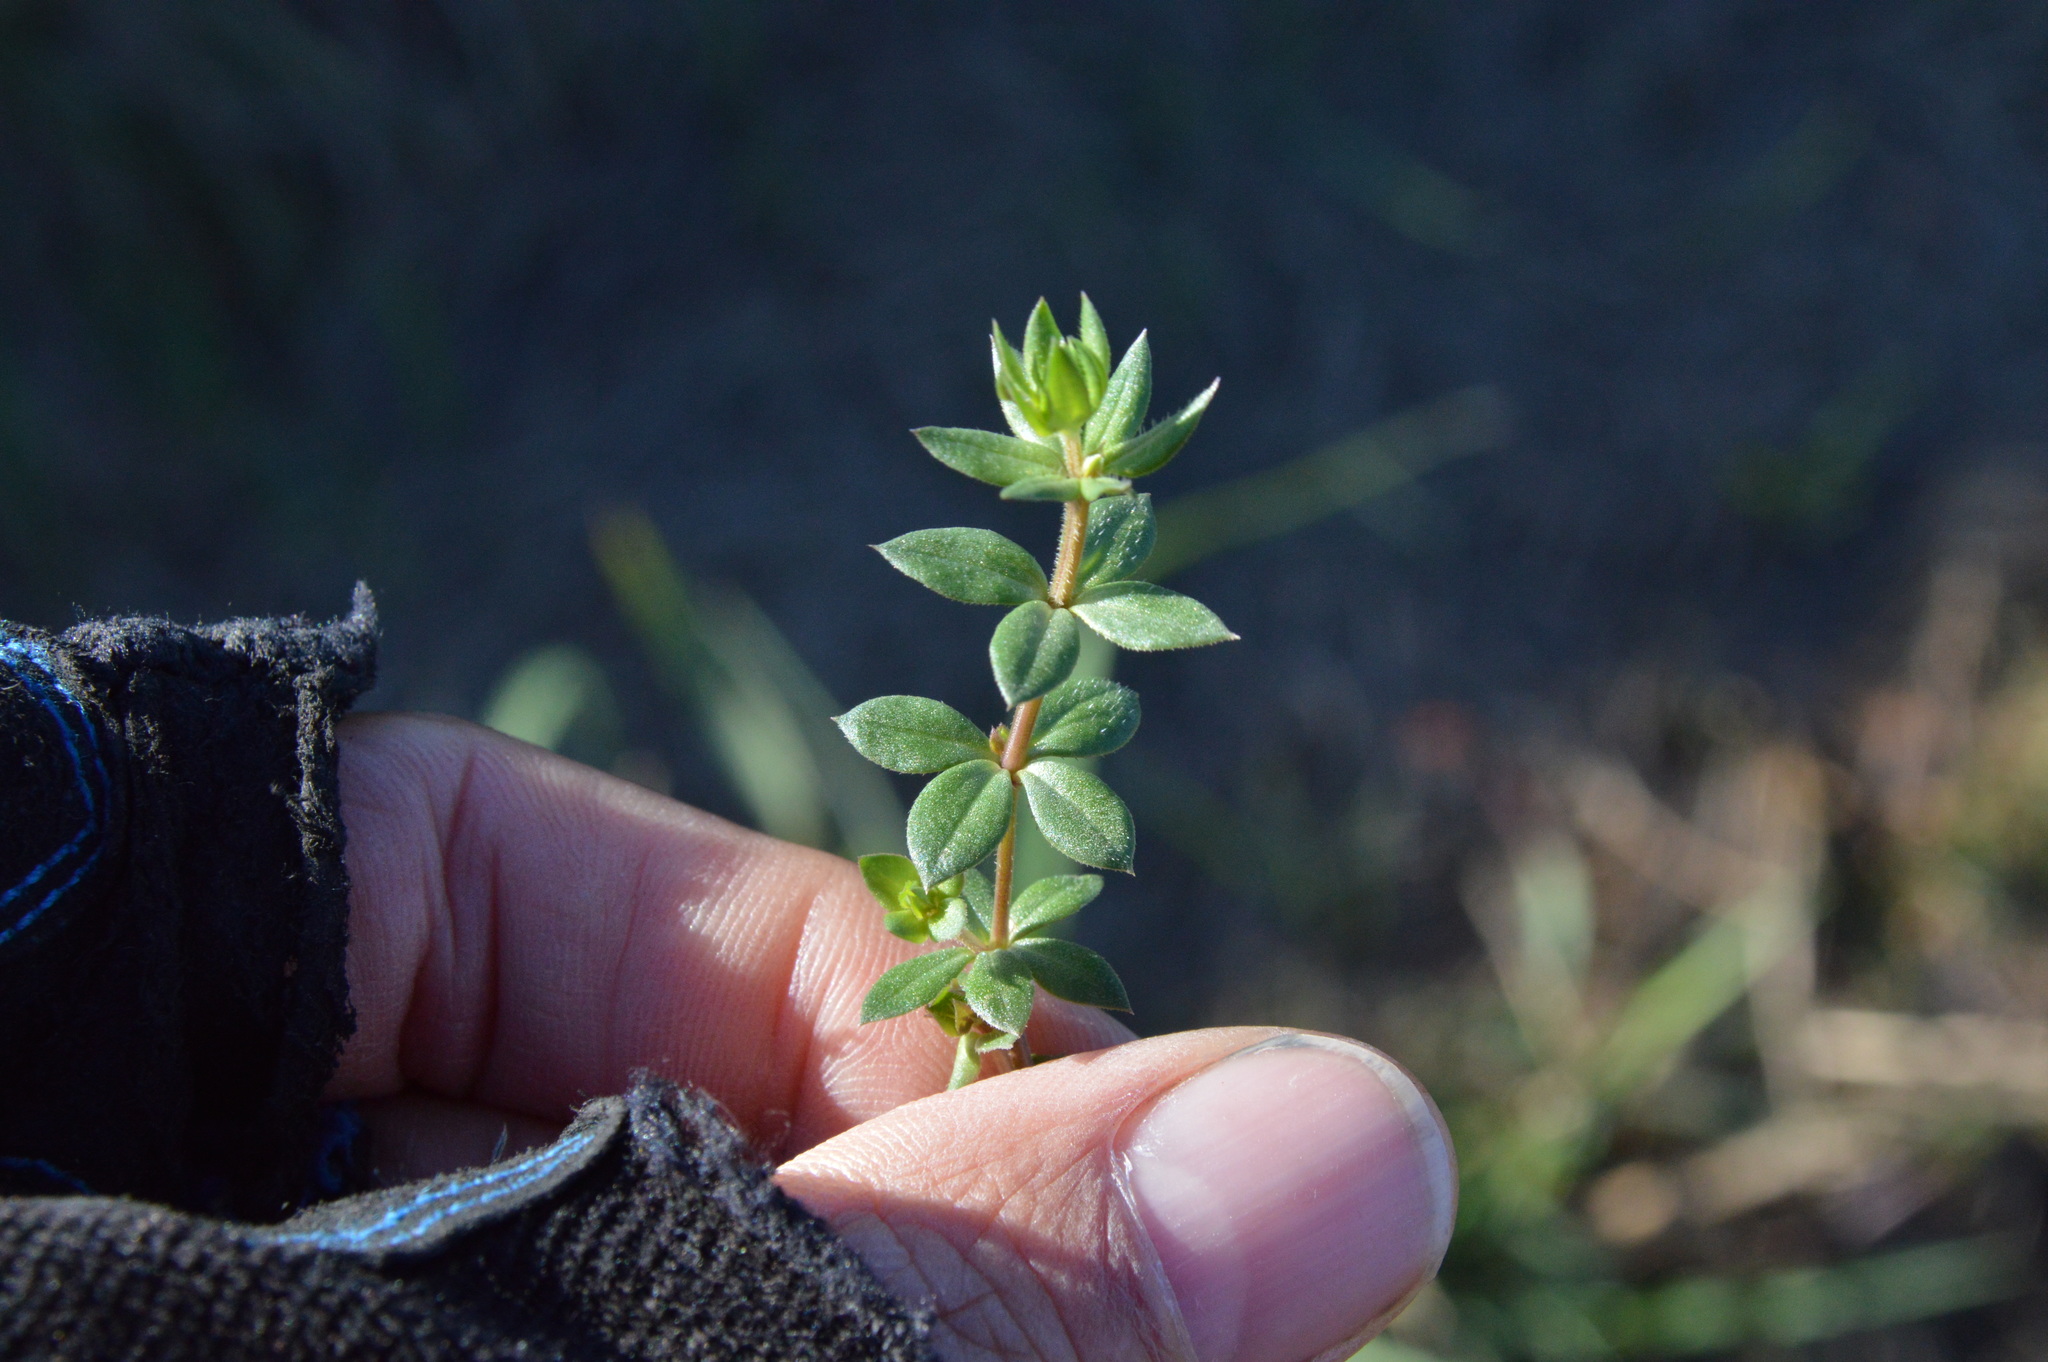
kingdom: Plantae
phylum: Tracheophyta
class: Magnoliopsida
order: Gentianales
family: Rubiaceae
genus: Sherardia
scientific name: Sherardia arvensis
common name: Field madder
